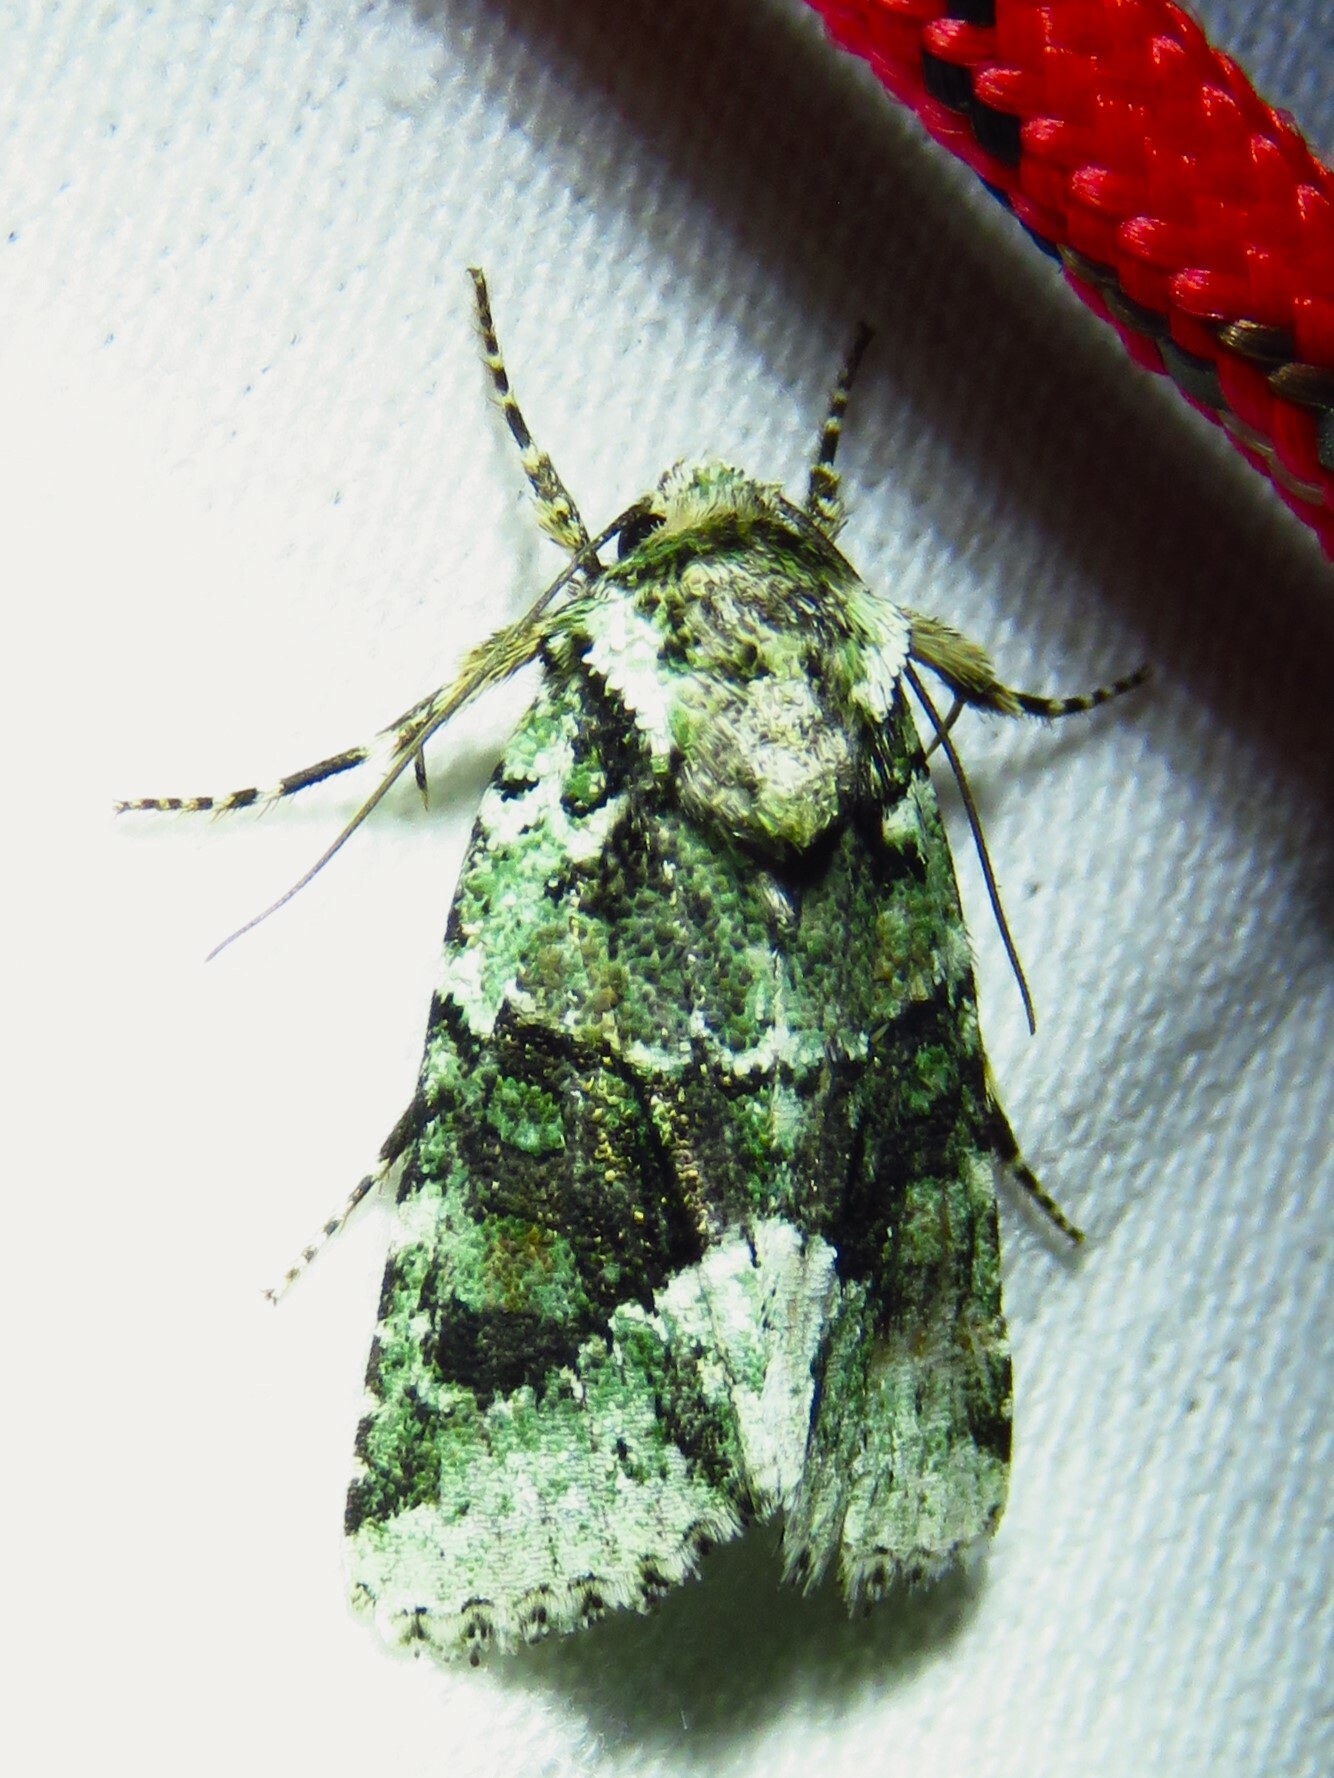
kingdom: Animalia
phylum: Arthropoda
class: Insecta
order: Lepidoptera
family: Noctuidae
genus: Lacinipolia
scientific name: Lacinipolia explicata
